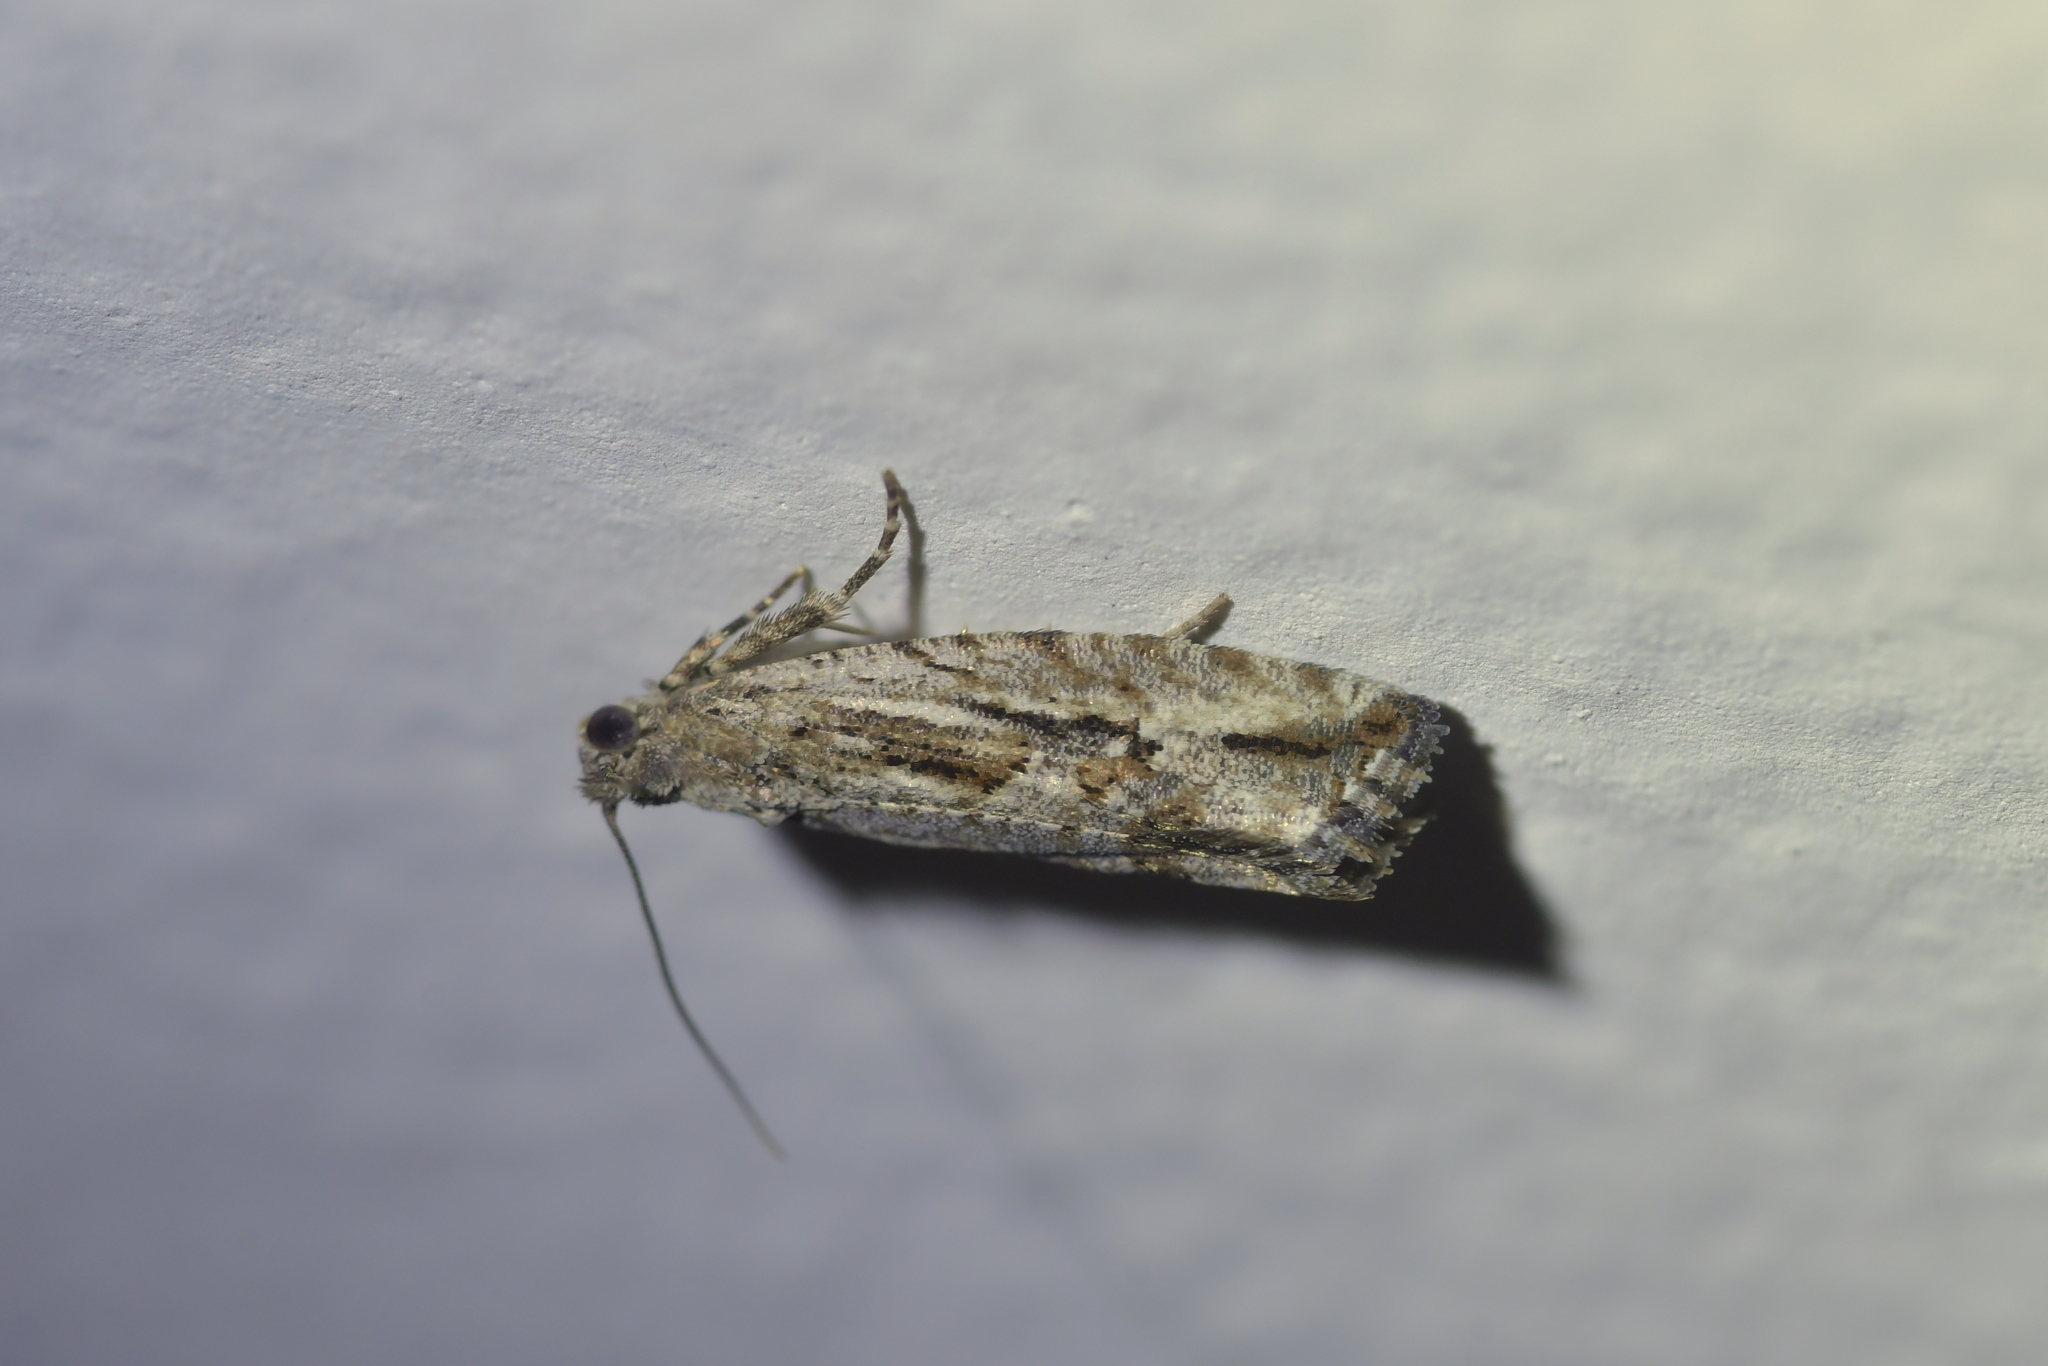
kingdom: Animalia
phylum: Arthropoda
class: Insecta
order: Lepidoptera
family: Tortricidae
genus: Strepsicrates
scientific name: Strepsicrates ejectana
